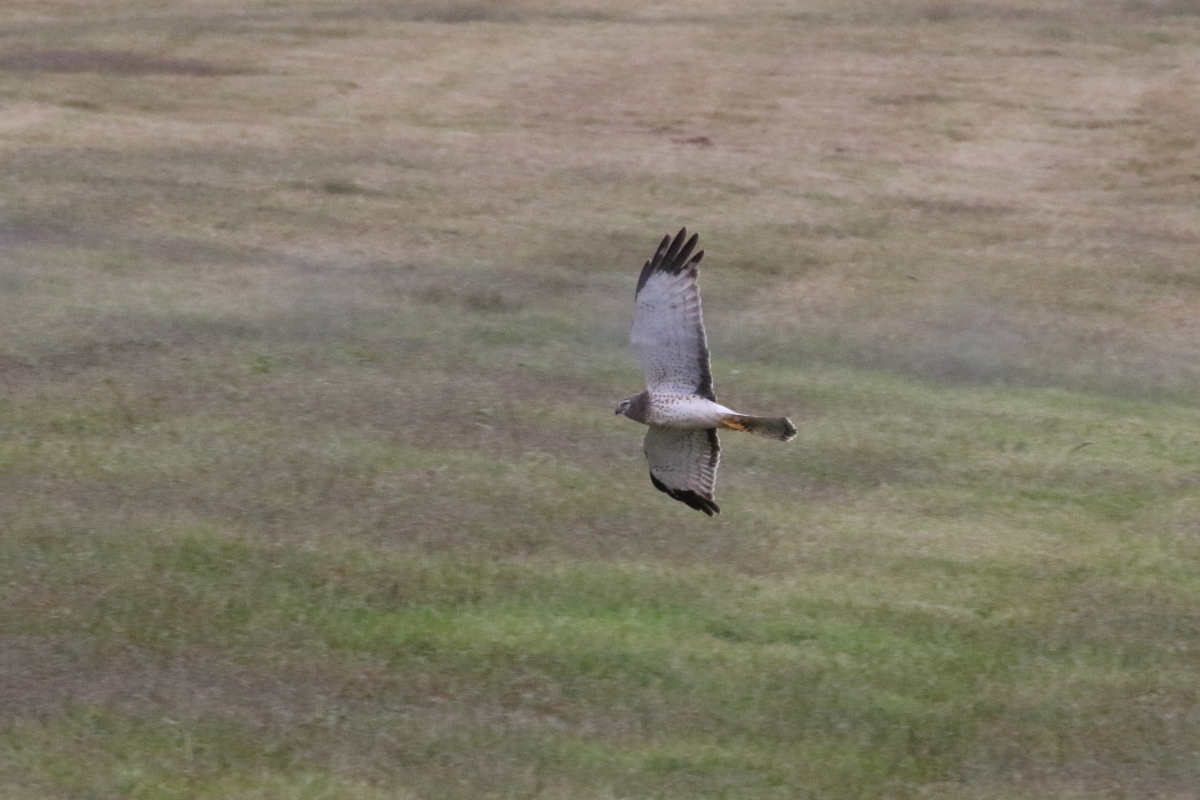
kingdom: Animalia
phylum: Chordata
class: Aves
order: Accipitriformes
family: Accipitridae
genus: Circus
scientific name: Circus cyaneus
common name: Hen harrier
